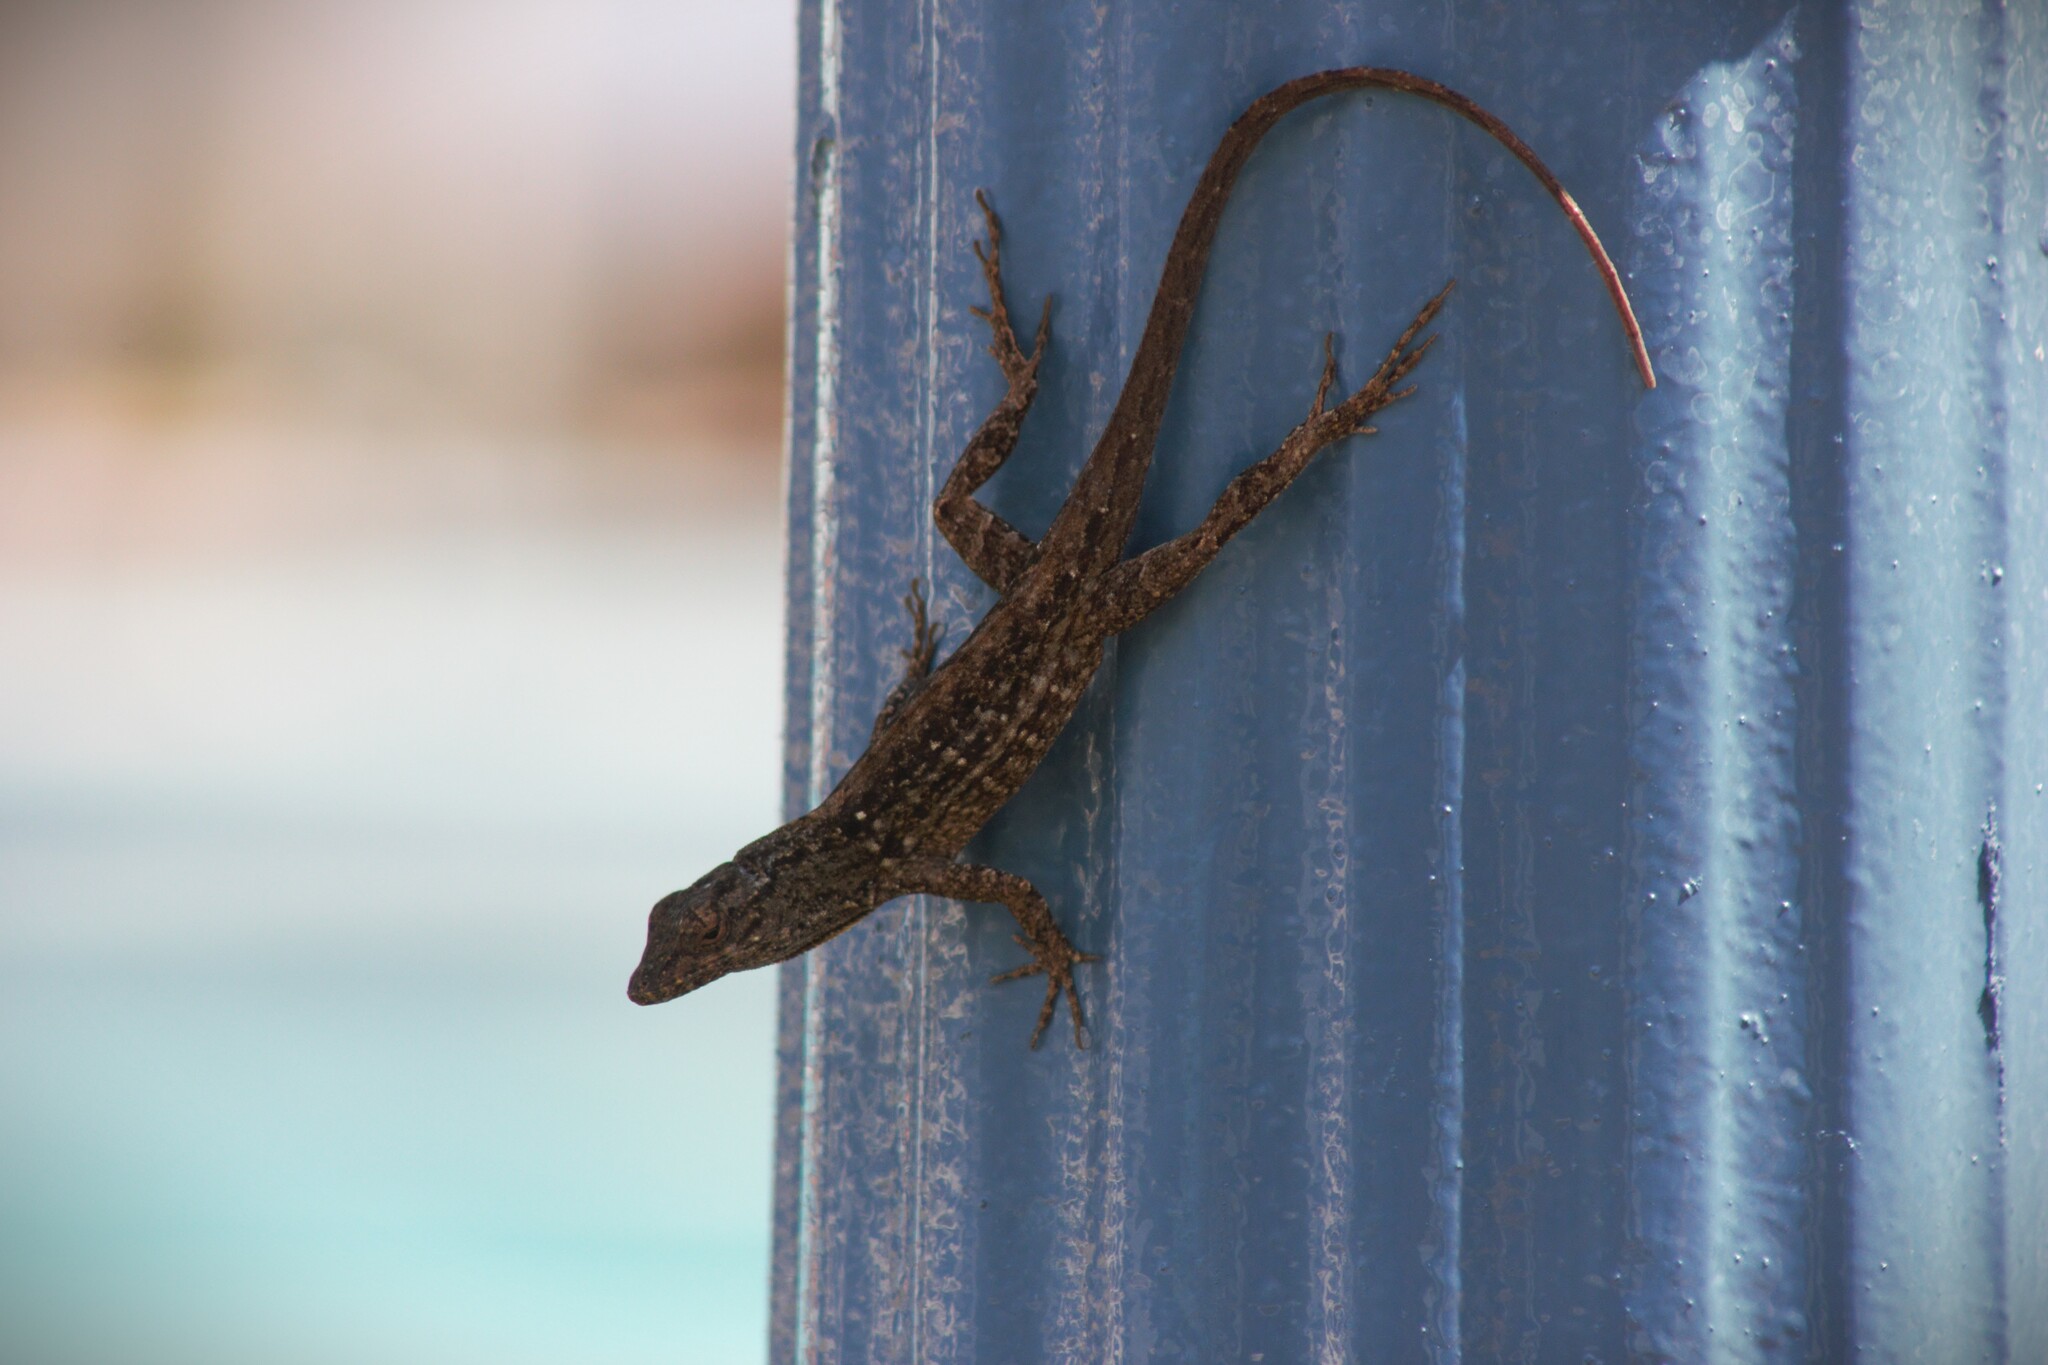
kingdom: Animalia
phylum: Chordata
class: Squamata
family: Dactyloidae
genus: Anolis
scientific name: Anolis sagrei
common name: Brown anole
